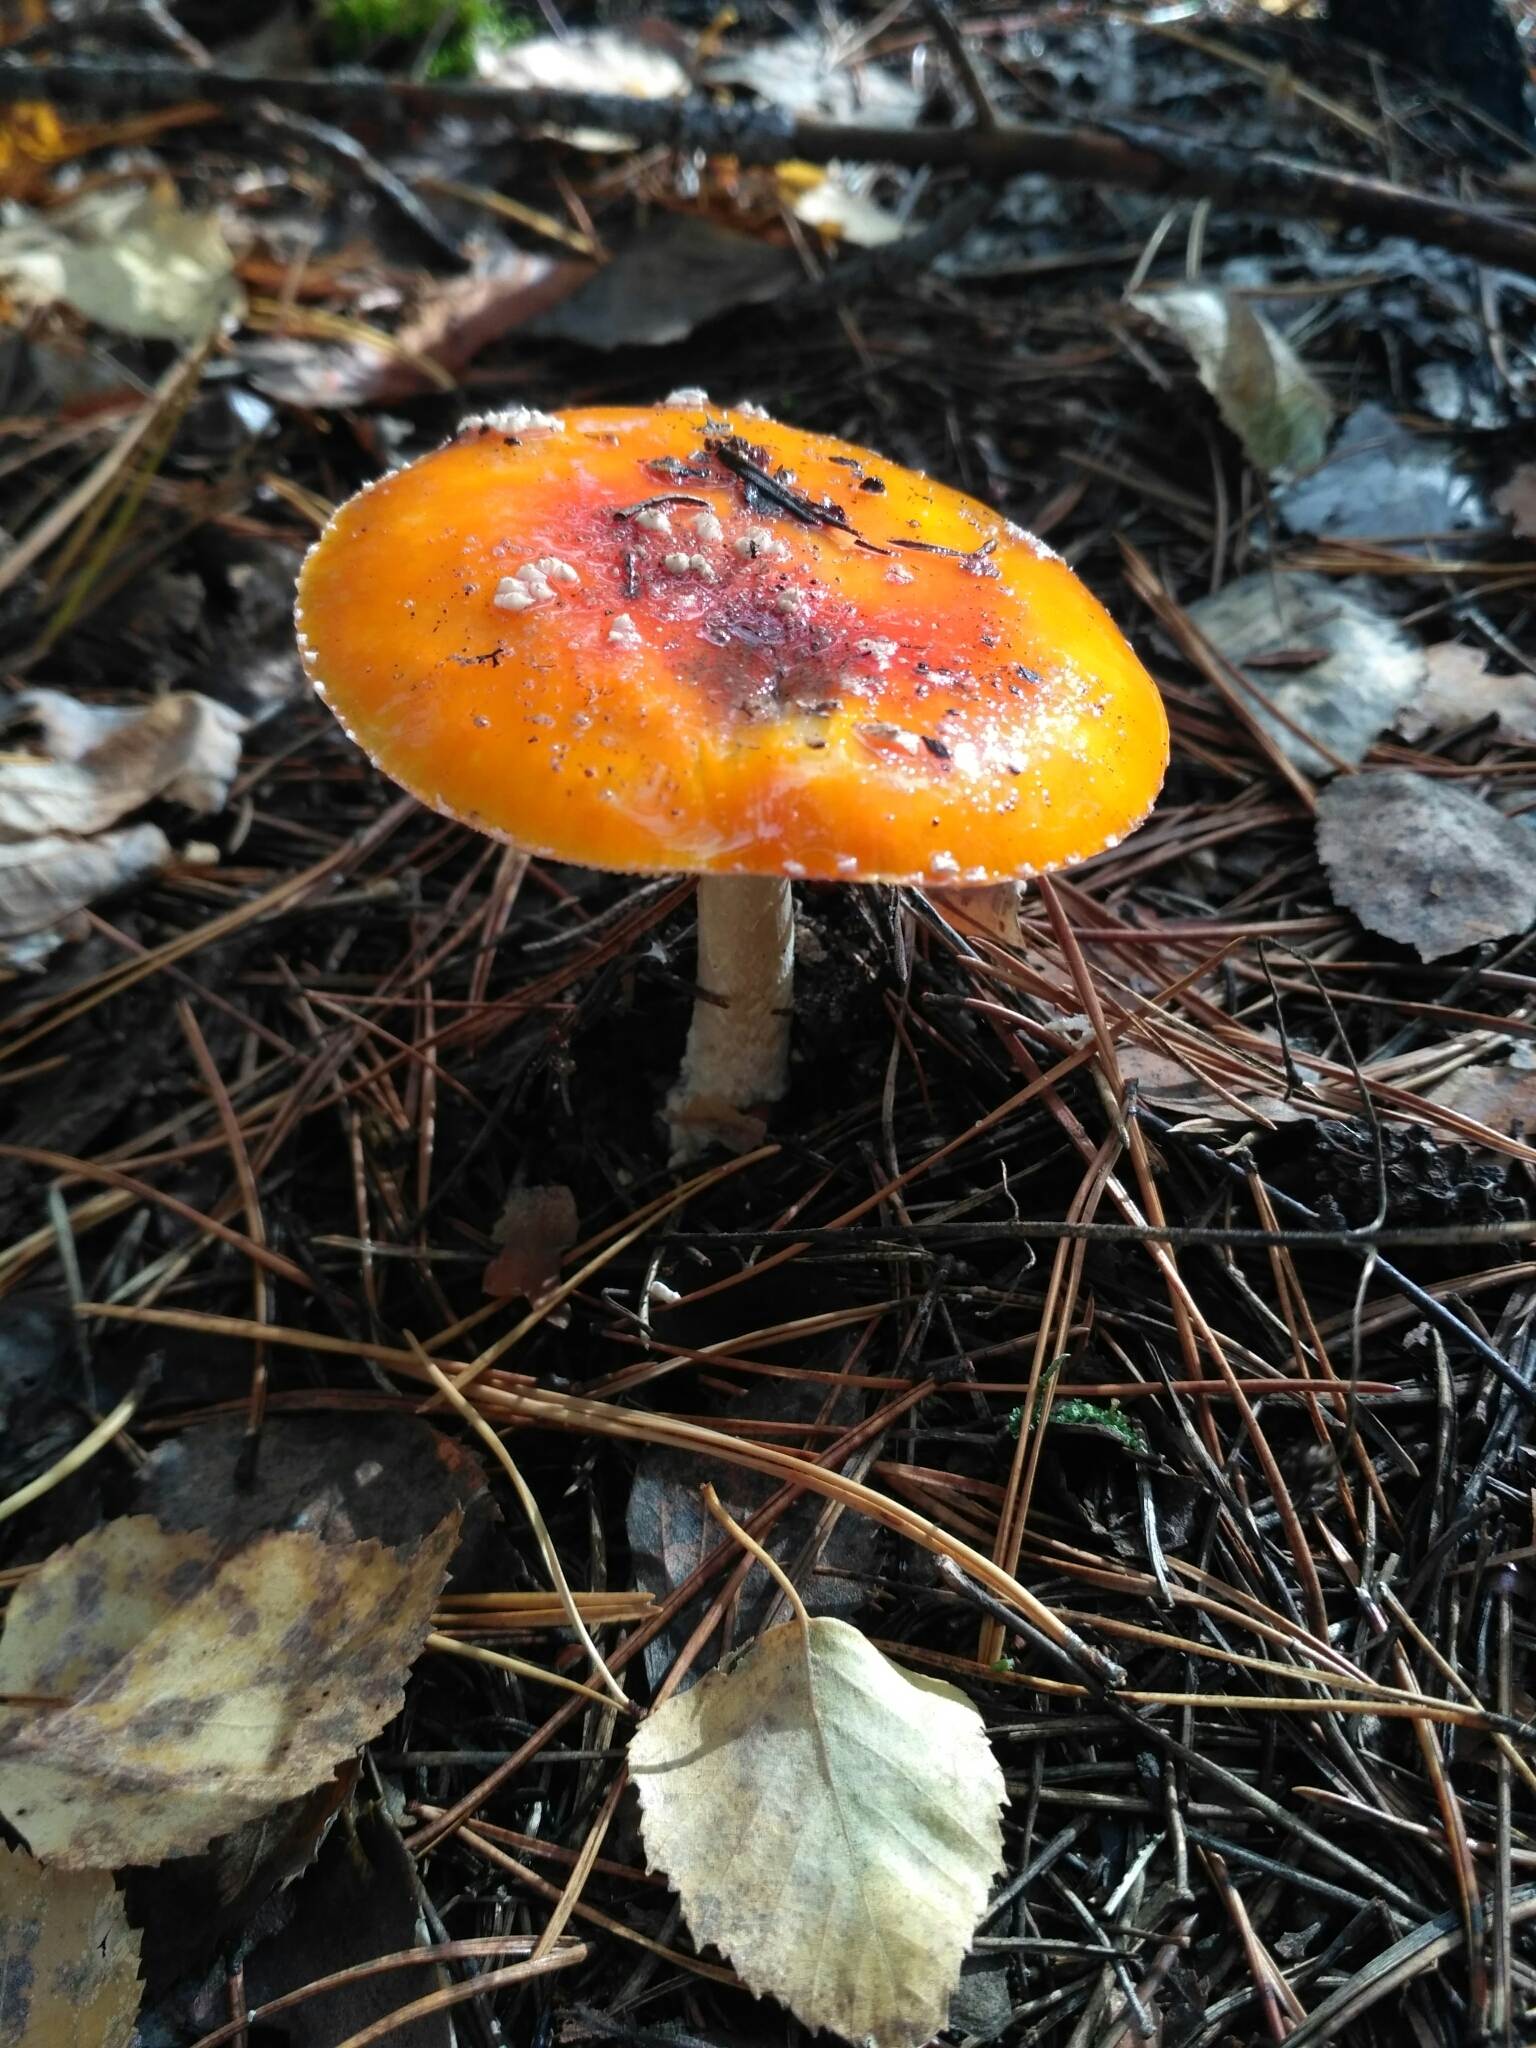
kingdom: Fungi
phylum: Basidiomycota
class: Agaricomycetes
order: Agaricales
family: Amanitaceae
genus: Amanita
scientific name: Amanita muscaria
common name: Fly agaric
